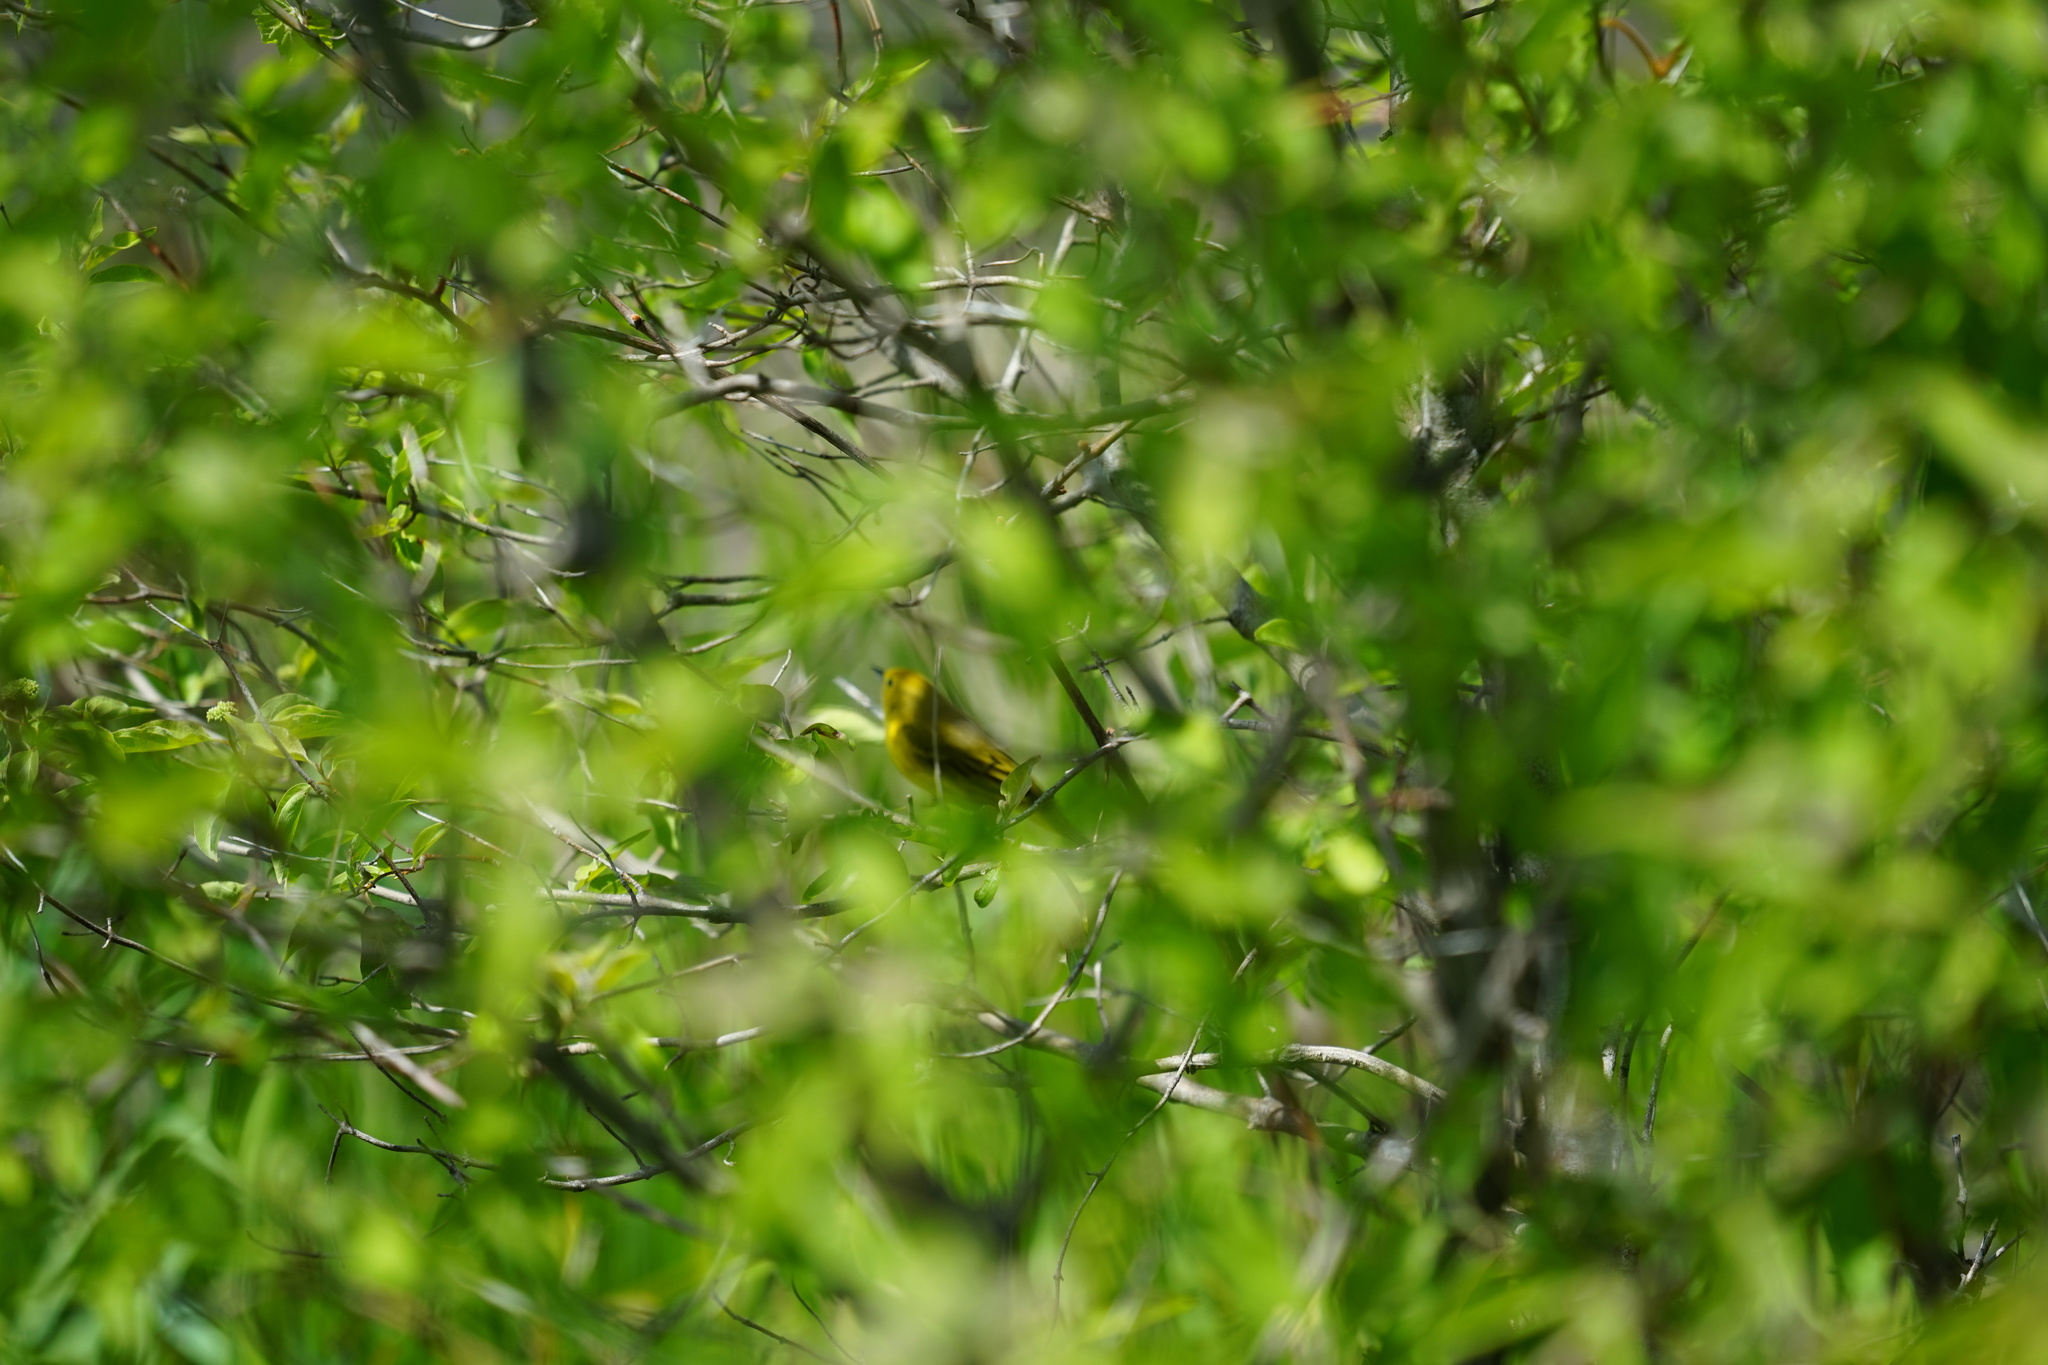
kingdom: Animalia
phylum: Chordata
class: Aves
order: Passeriformes
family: Parulidae
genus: Setophaga
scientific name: Setophaga petechia
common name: Yellow warbler
